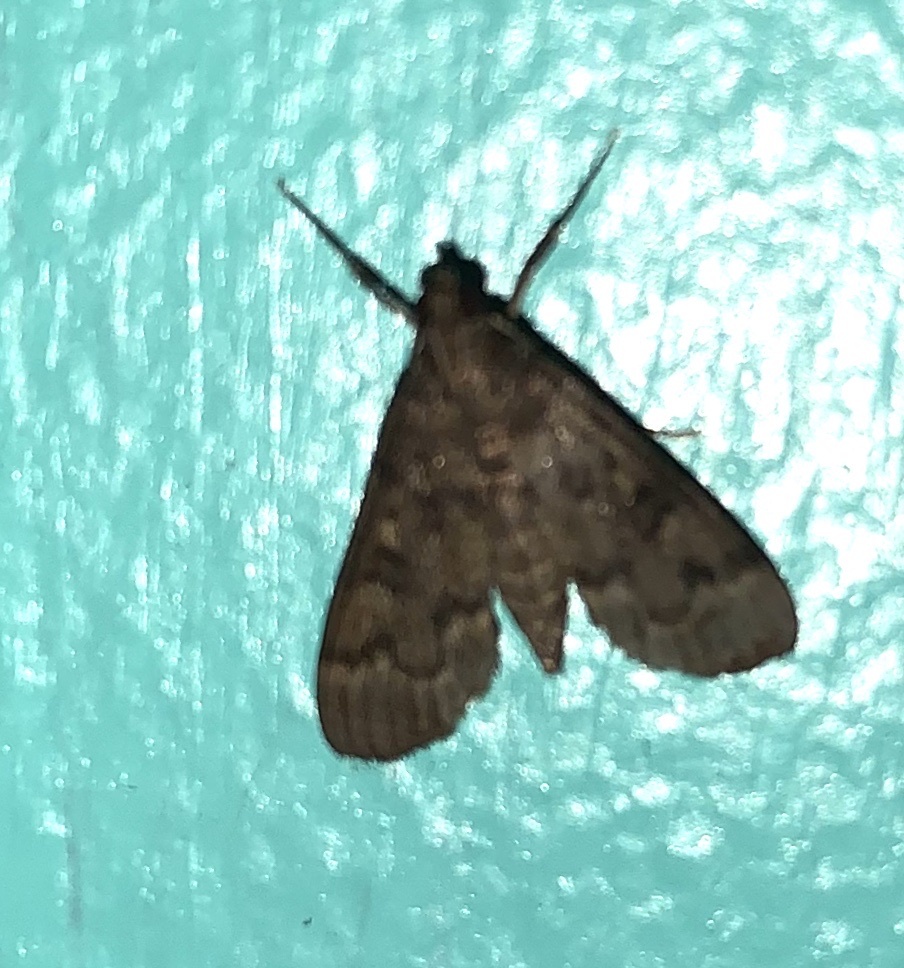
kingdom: Animalia
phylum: Arthropoda
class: Insecta
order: Lepidoptera
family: Crambidae
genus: Herpetogramma
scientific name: Herpetogramma phaeopteralis
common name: Dusky herpetogramma moth
